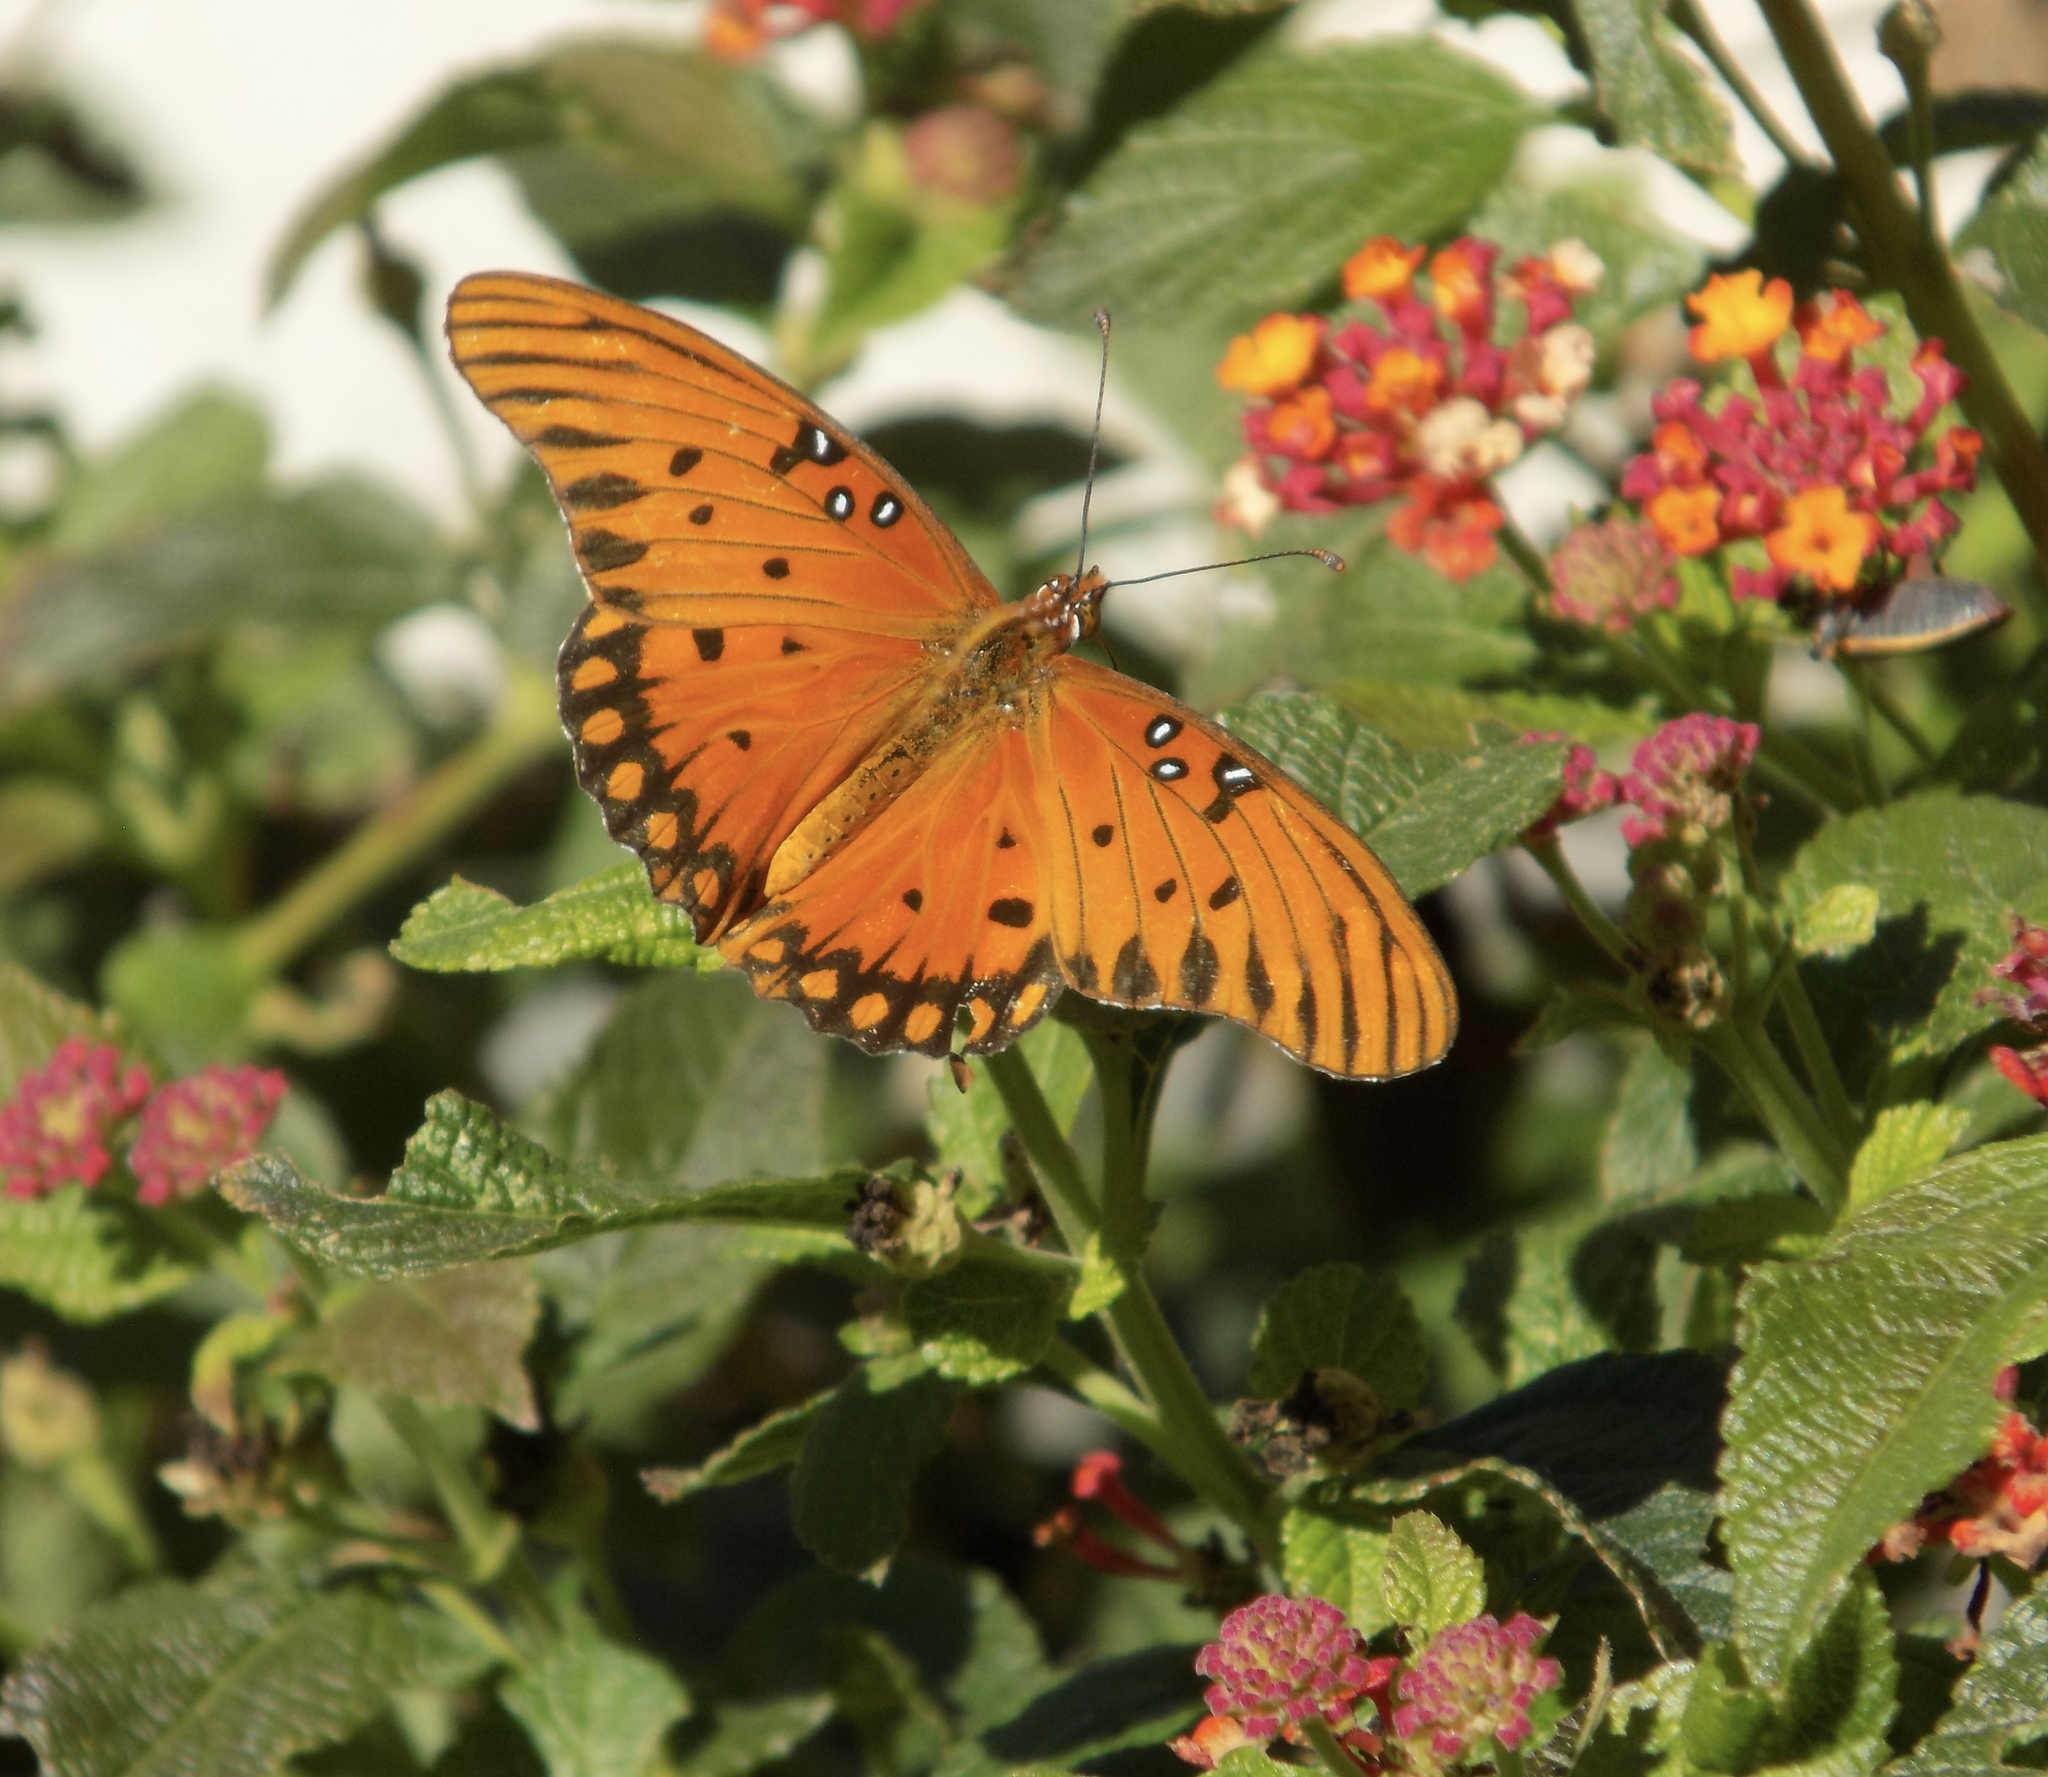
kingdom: Animalia
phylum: Arthropoda
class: Insecta
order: Lepidoptera
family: Nymphalidae
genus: Dione
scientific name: Dione vanillae
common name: Gulf fritillary
